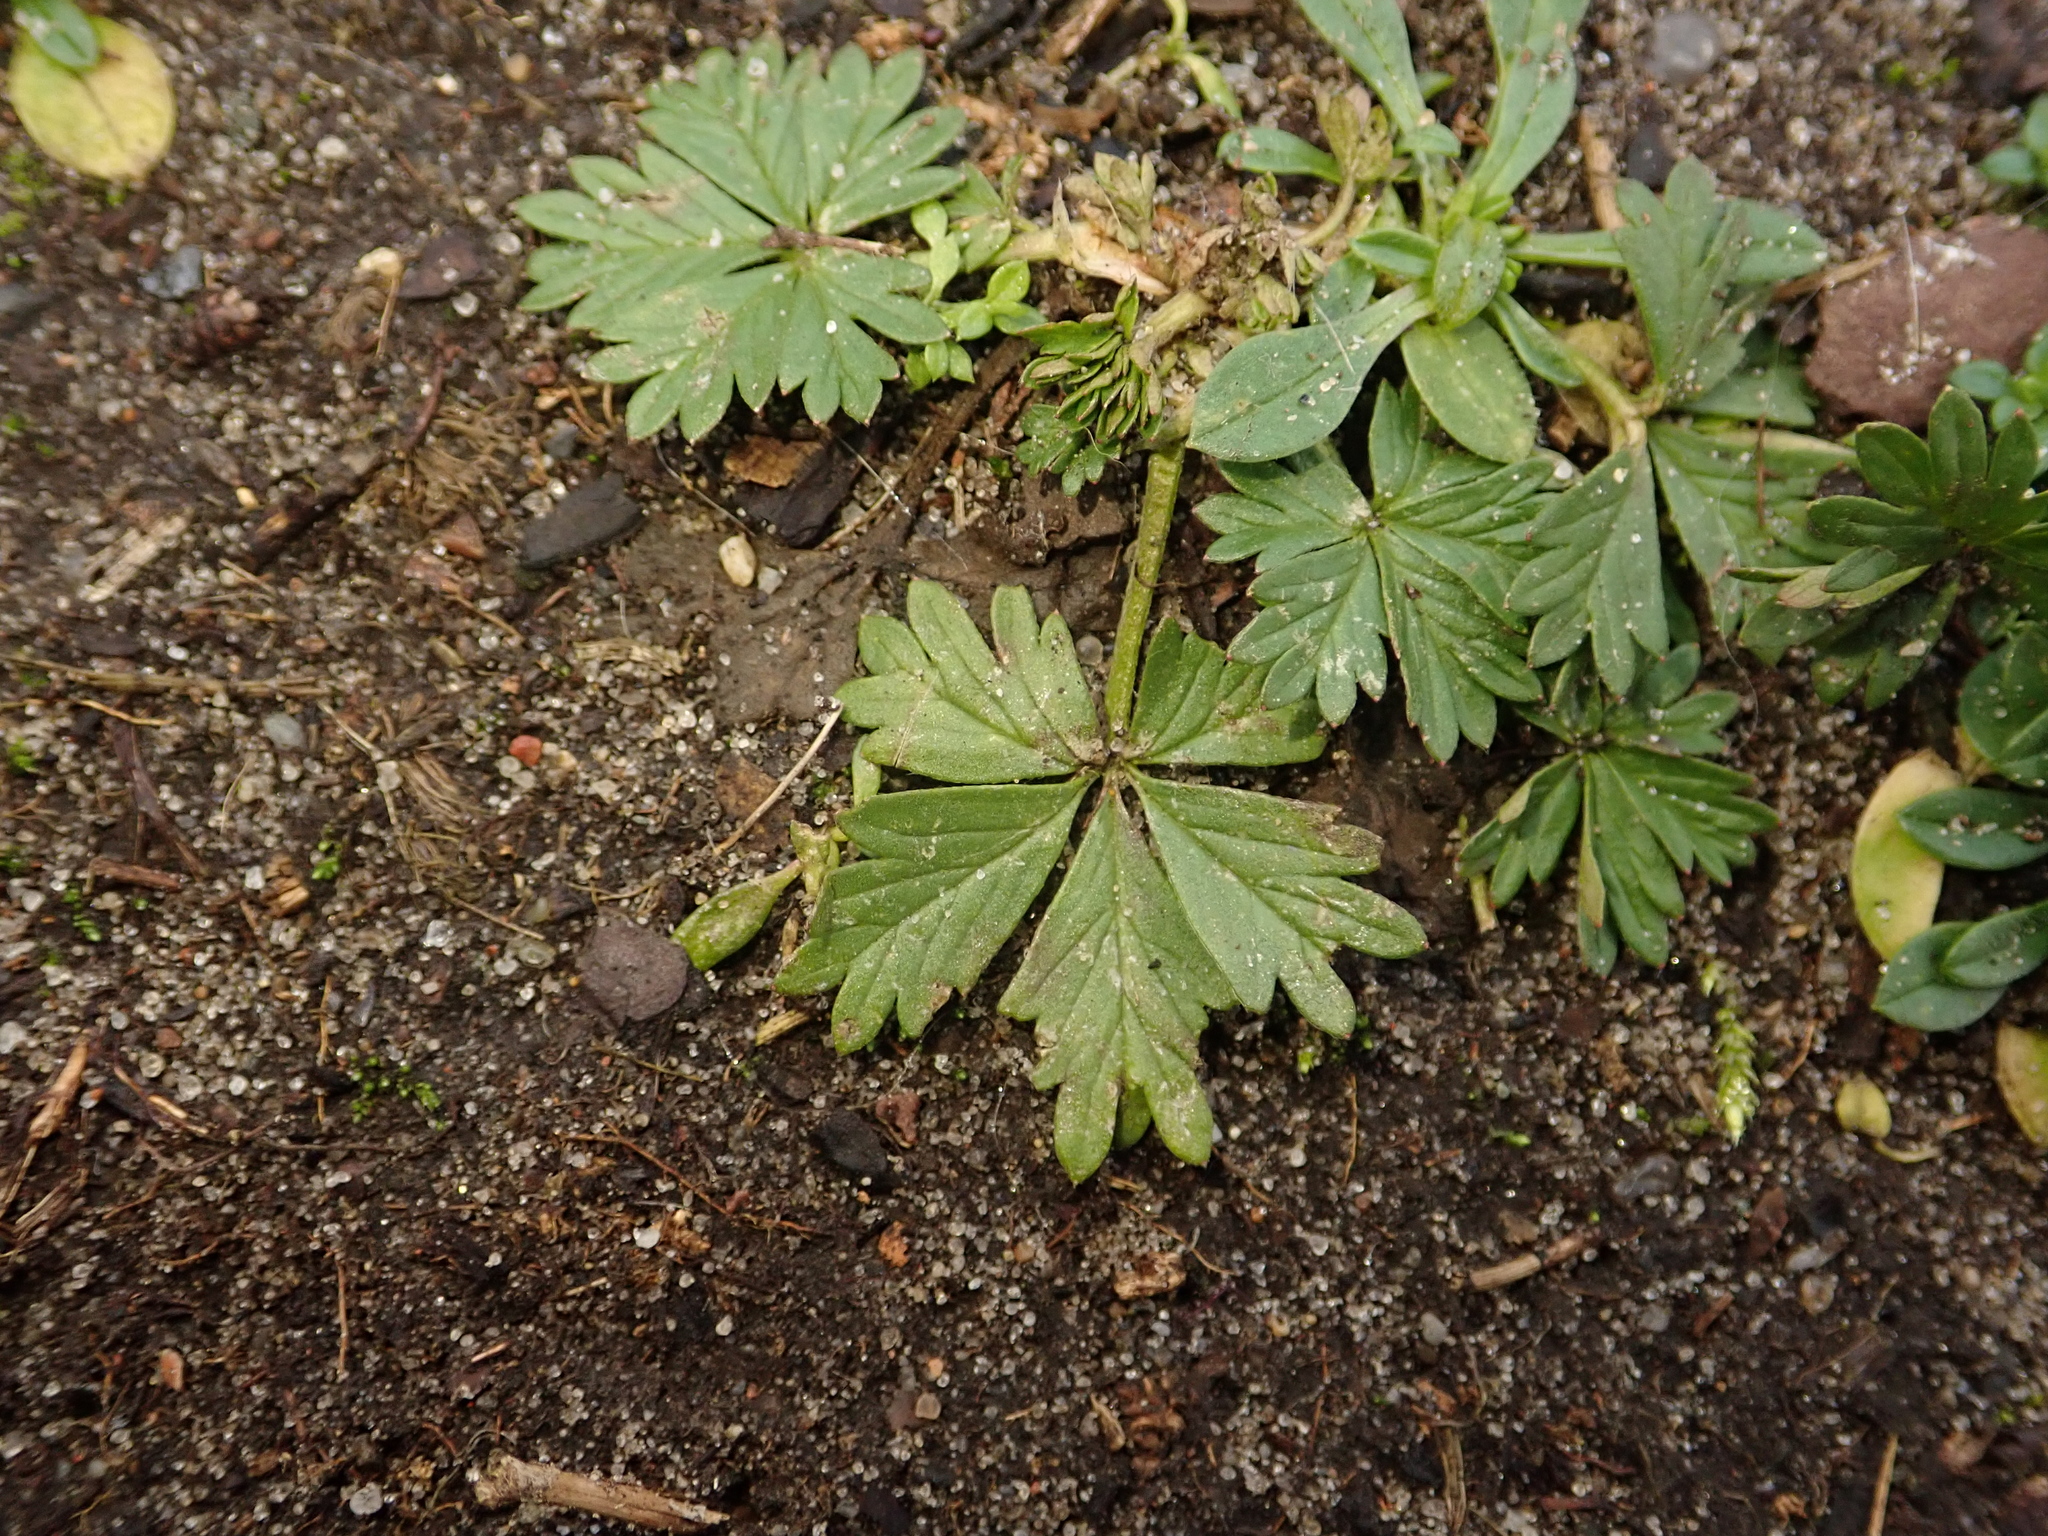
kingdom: Plantae
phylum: Tracheophyta
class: Magnoliopsida
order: Rosales
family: Rosaceae
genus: Potentilla
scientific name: Potentilla argentea
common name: Hoary cinquefoil
